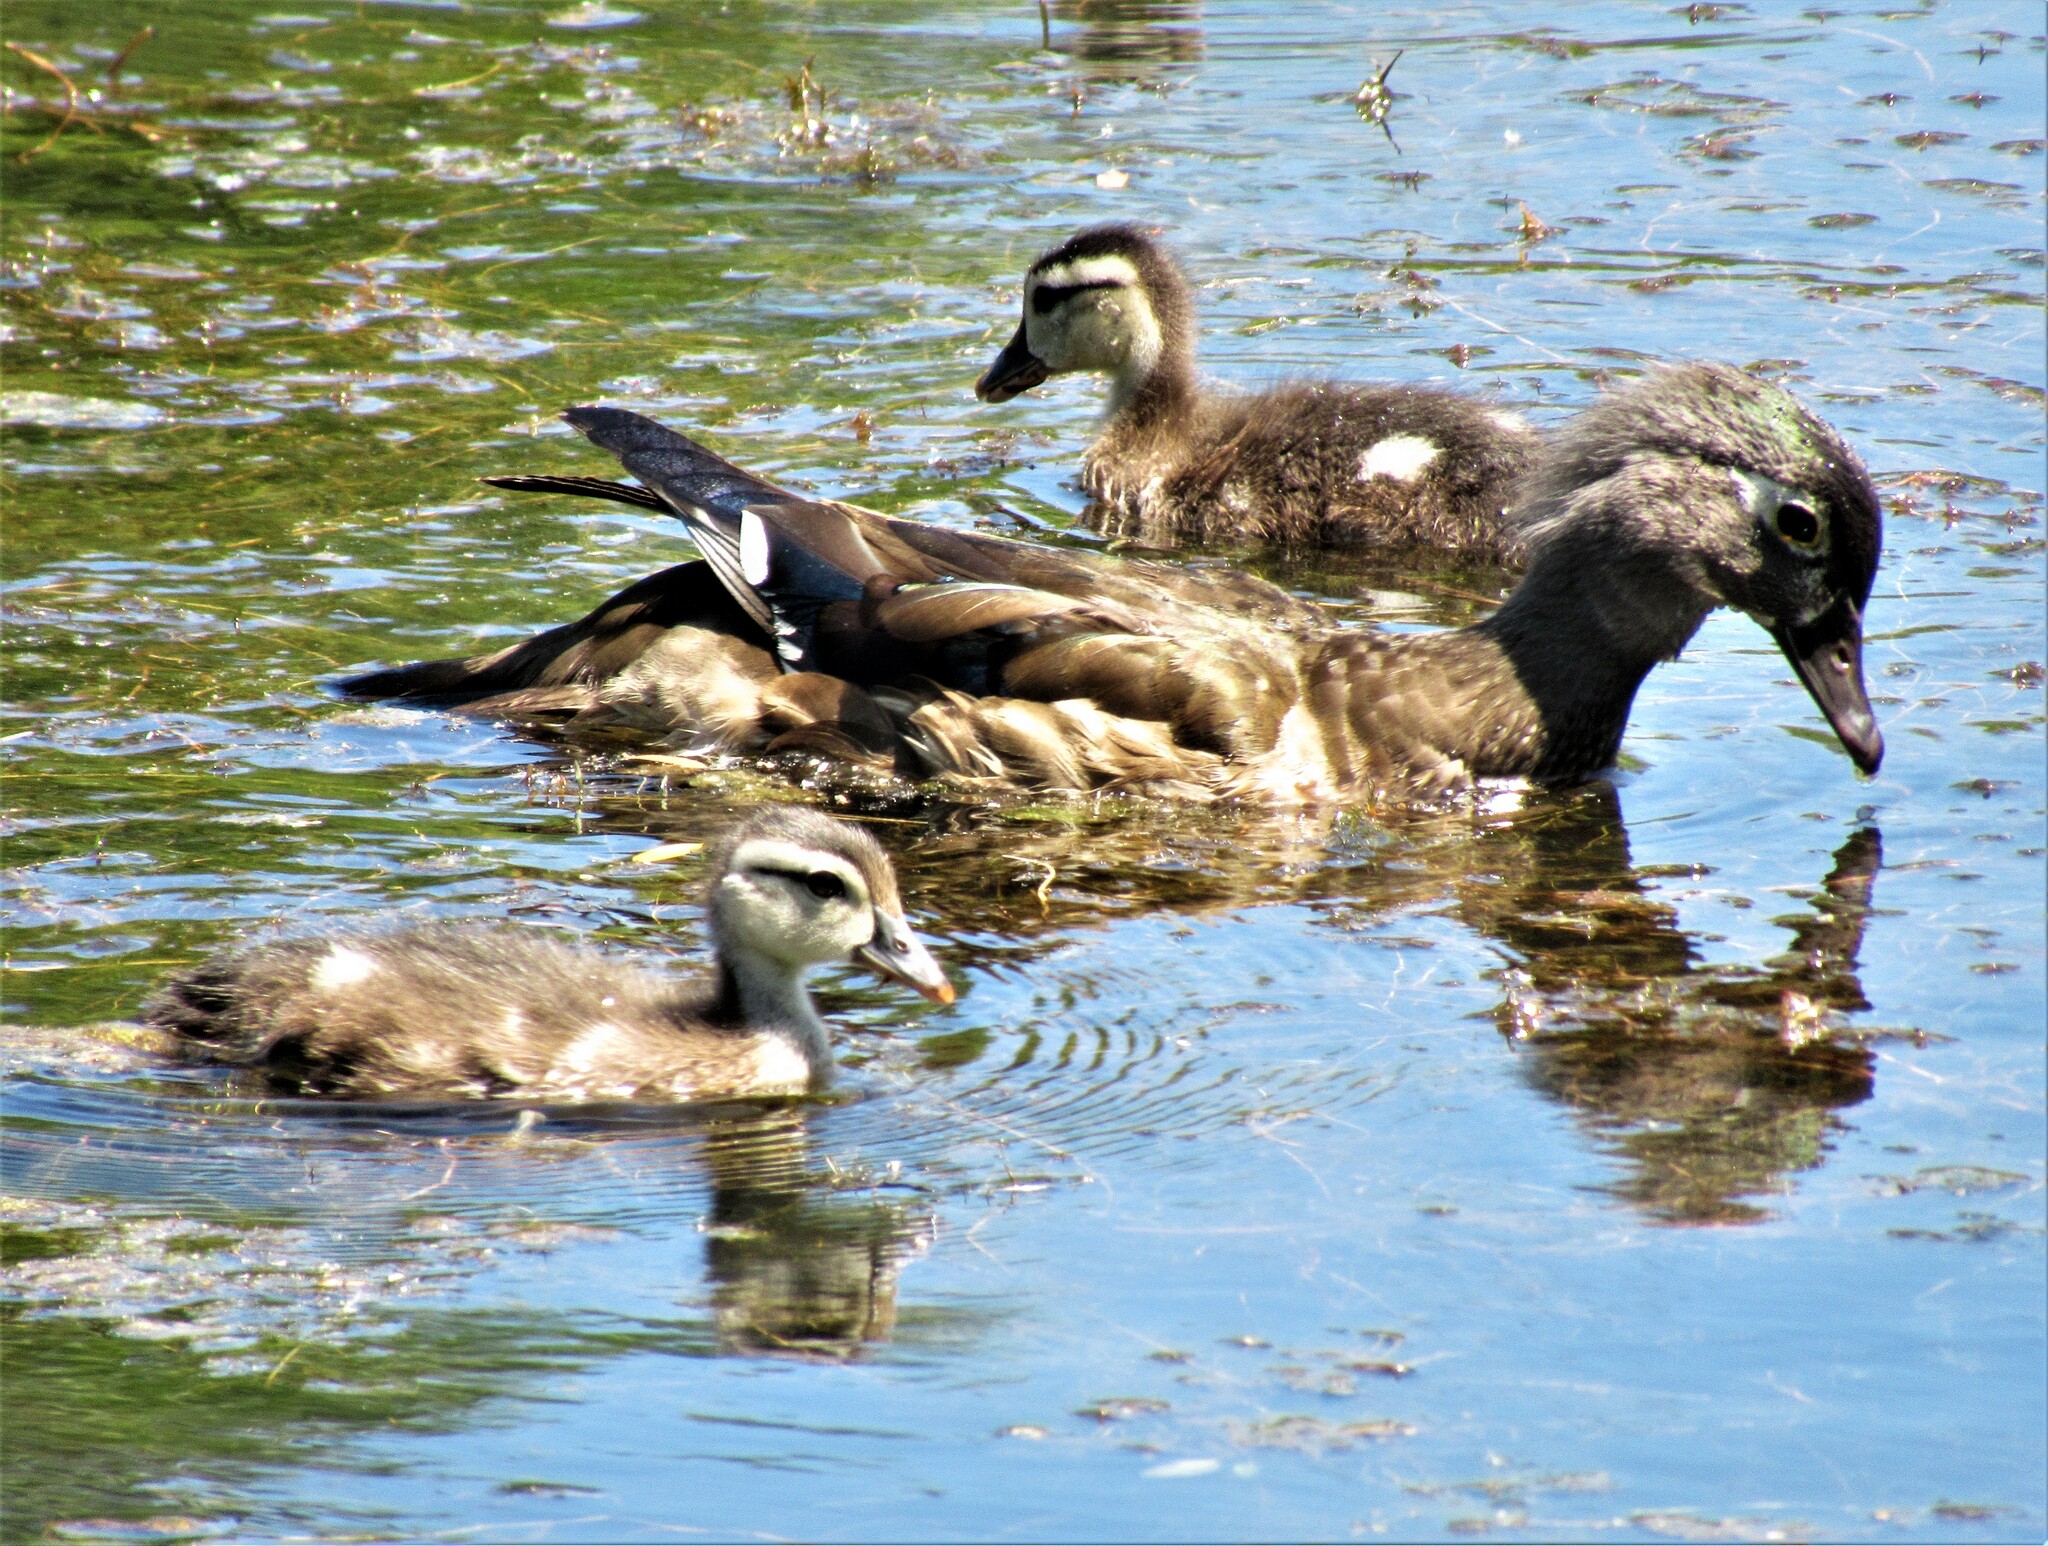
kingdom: Animalia
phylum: Chordata
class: Aves
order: Anseriformes
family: Anatidae
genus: Aix
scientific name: Aix sponsa
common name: Wood duck
